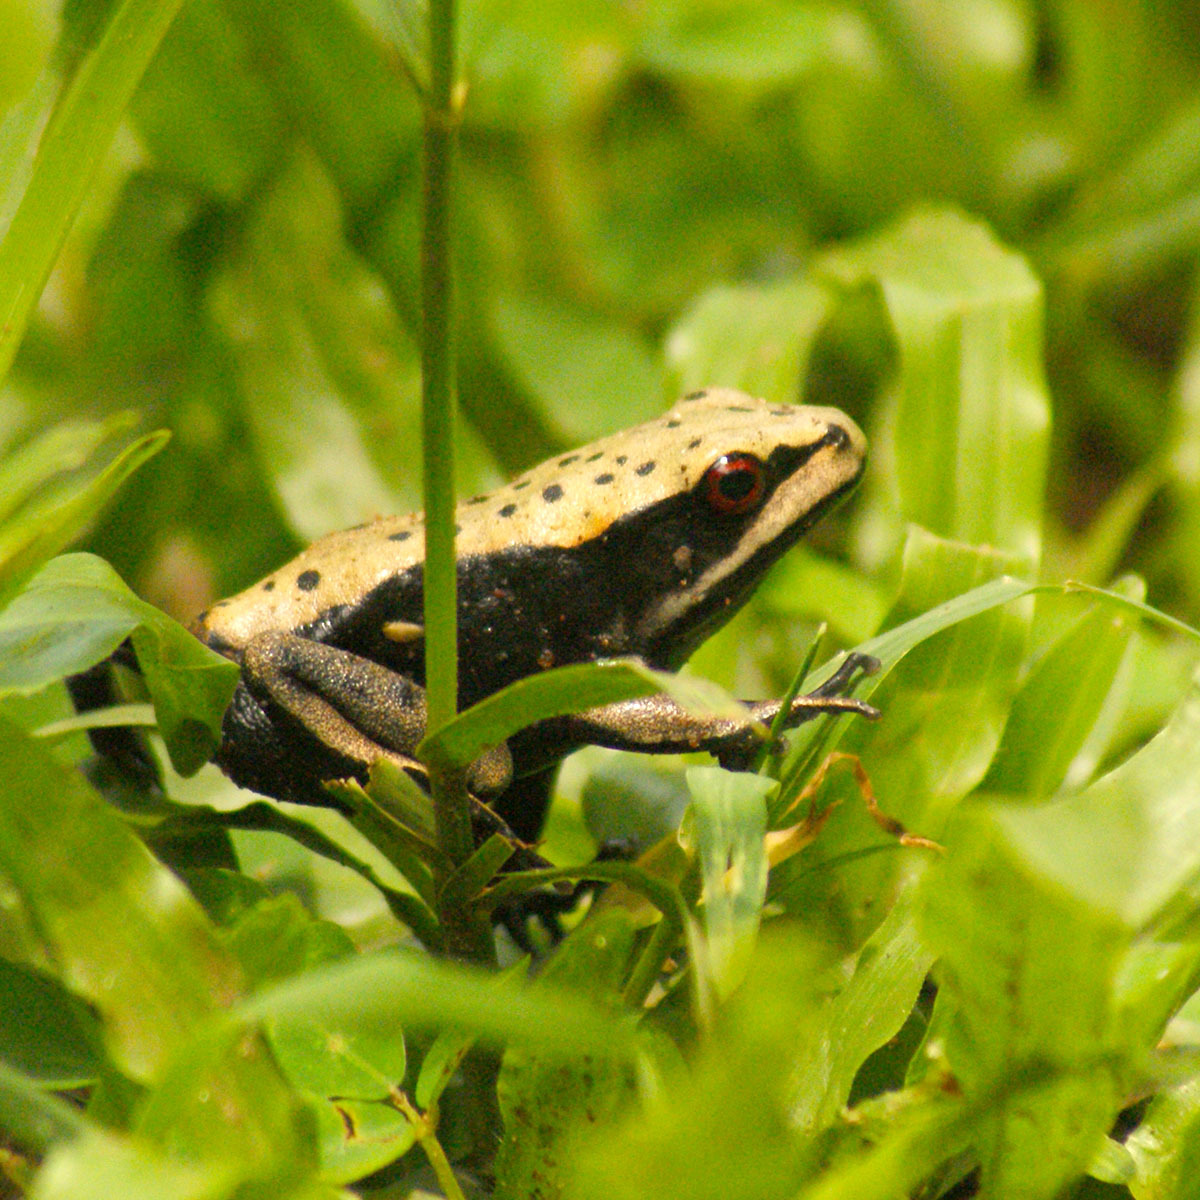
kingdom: Animalia
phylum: Chordata
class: Amphibia
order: Anura
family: Ranidae
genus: Clinotarsus
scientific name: Clinotarsus curtipes
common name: Bicoloured frog
